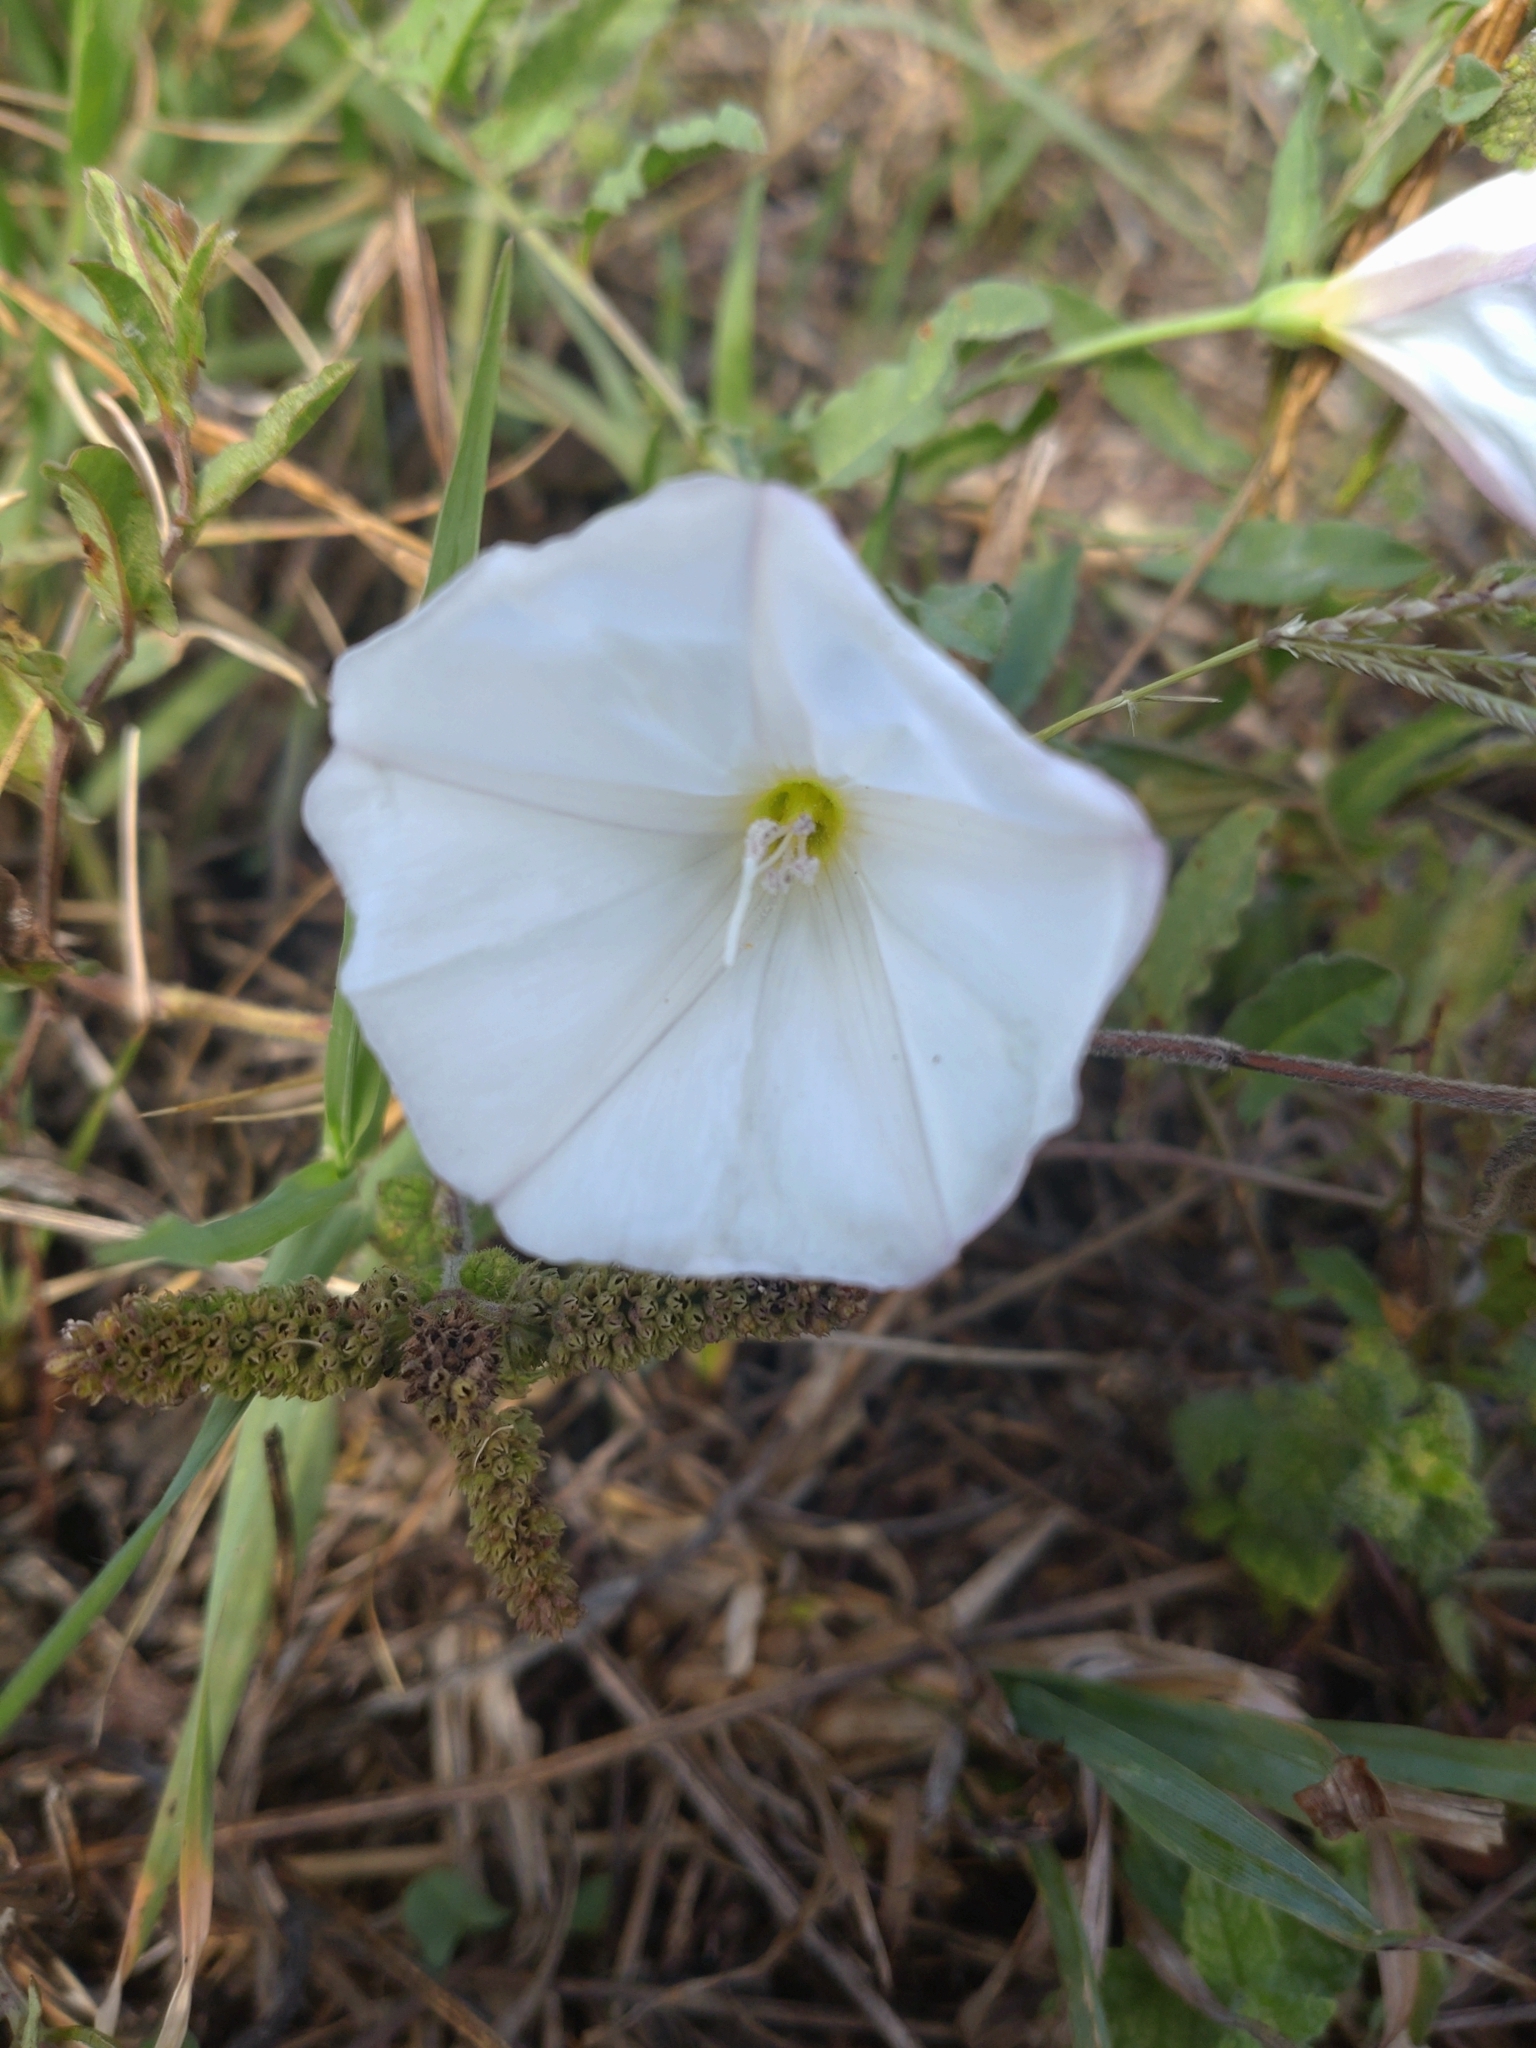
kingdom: Plantae
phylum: Tracheophyta
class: Magnoliopsida
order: Solanales
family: Convolvulaceae
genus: Convolvulus
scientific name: Convolvulus arvensis
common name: Field bindweed
